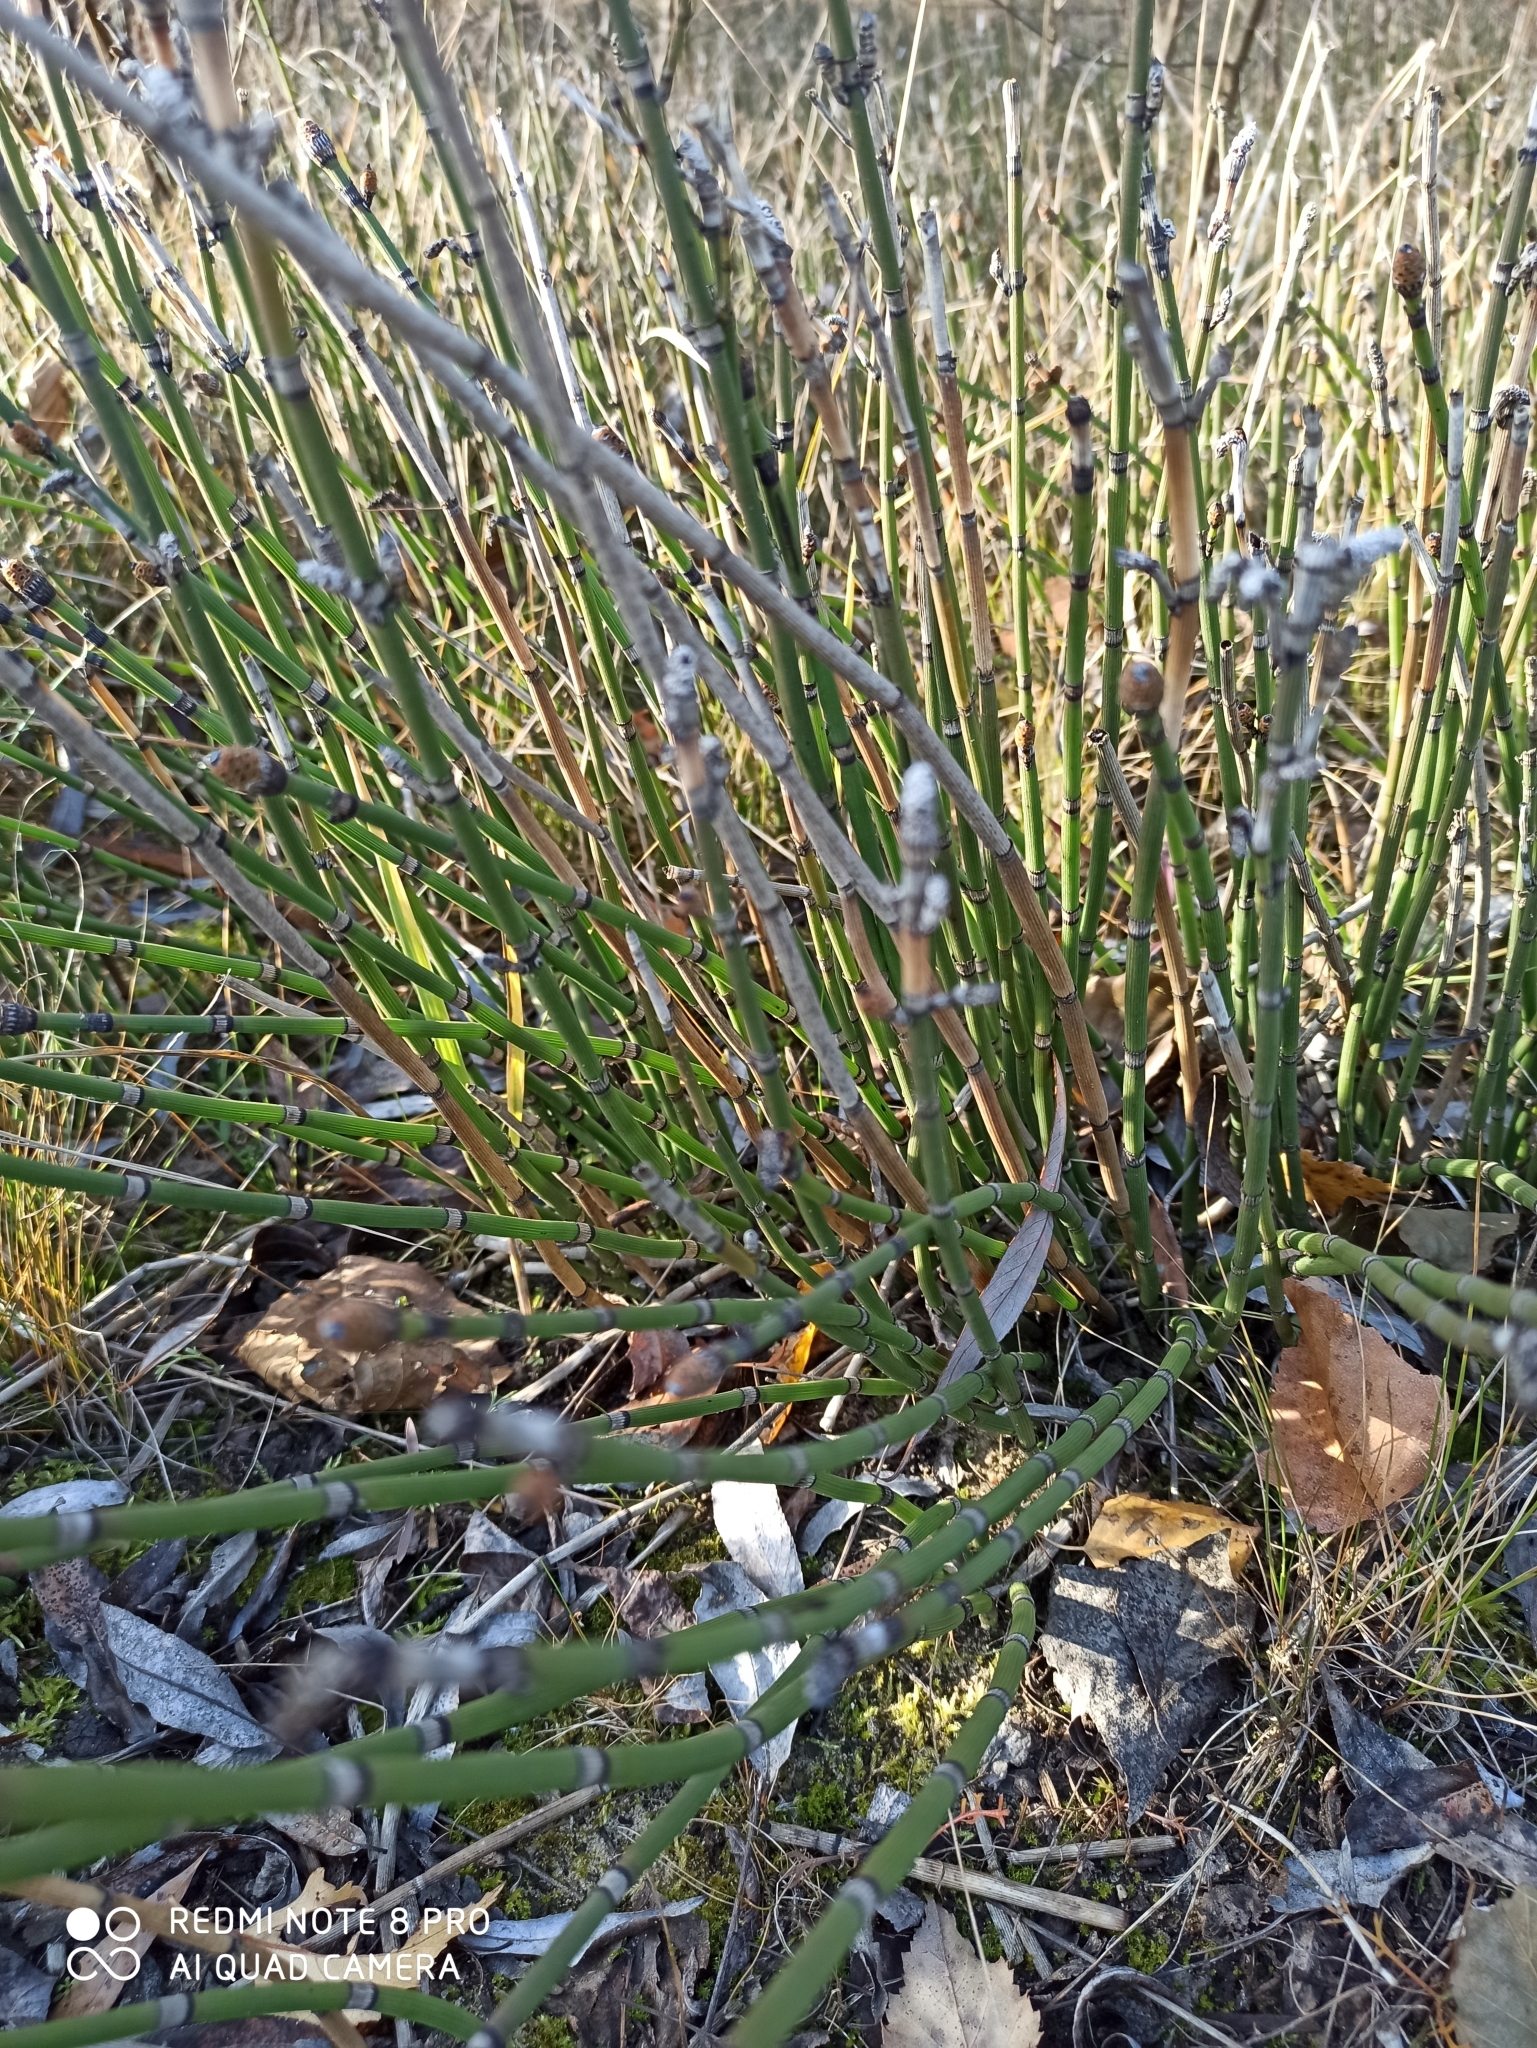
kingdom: Plantae
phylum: Tracheophyta
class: Polypodiopsida
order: Equisetales
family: Equisetaceae
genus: Equisetum
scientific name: Equisetum hyemale
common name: Rough horsetail
